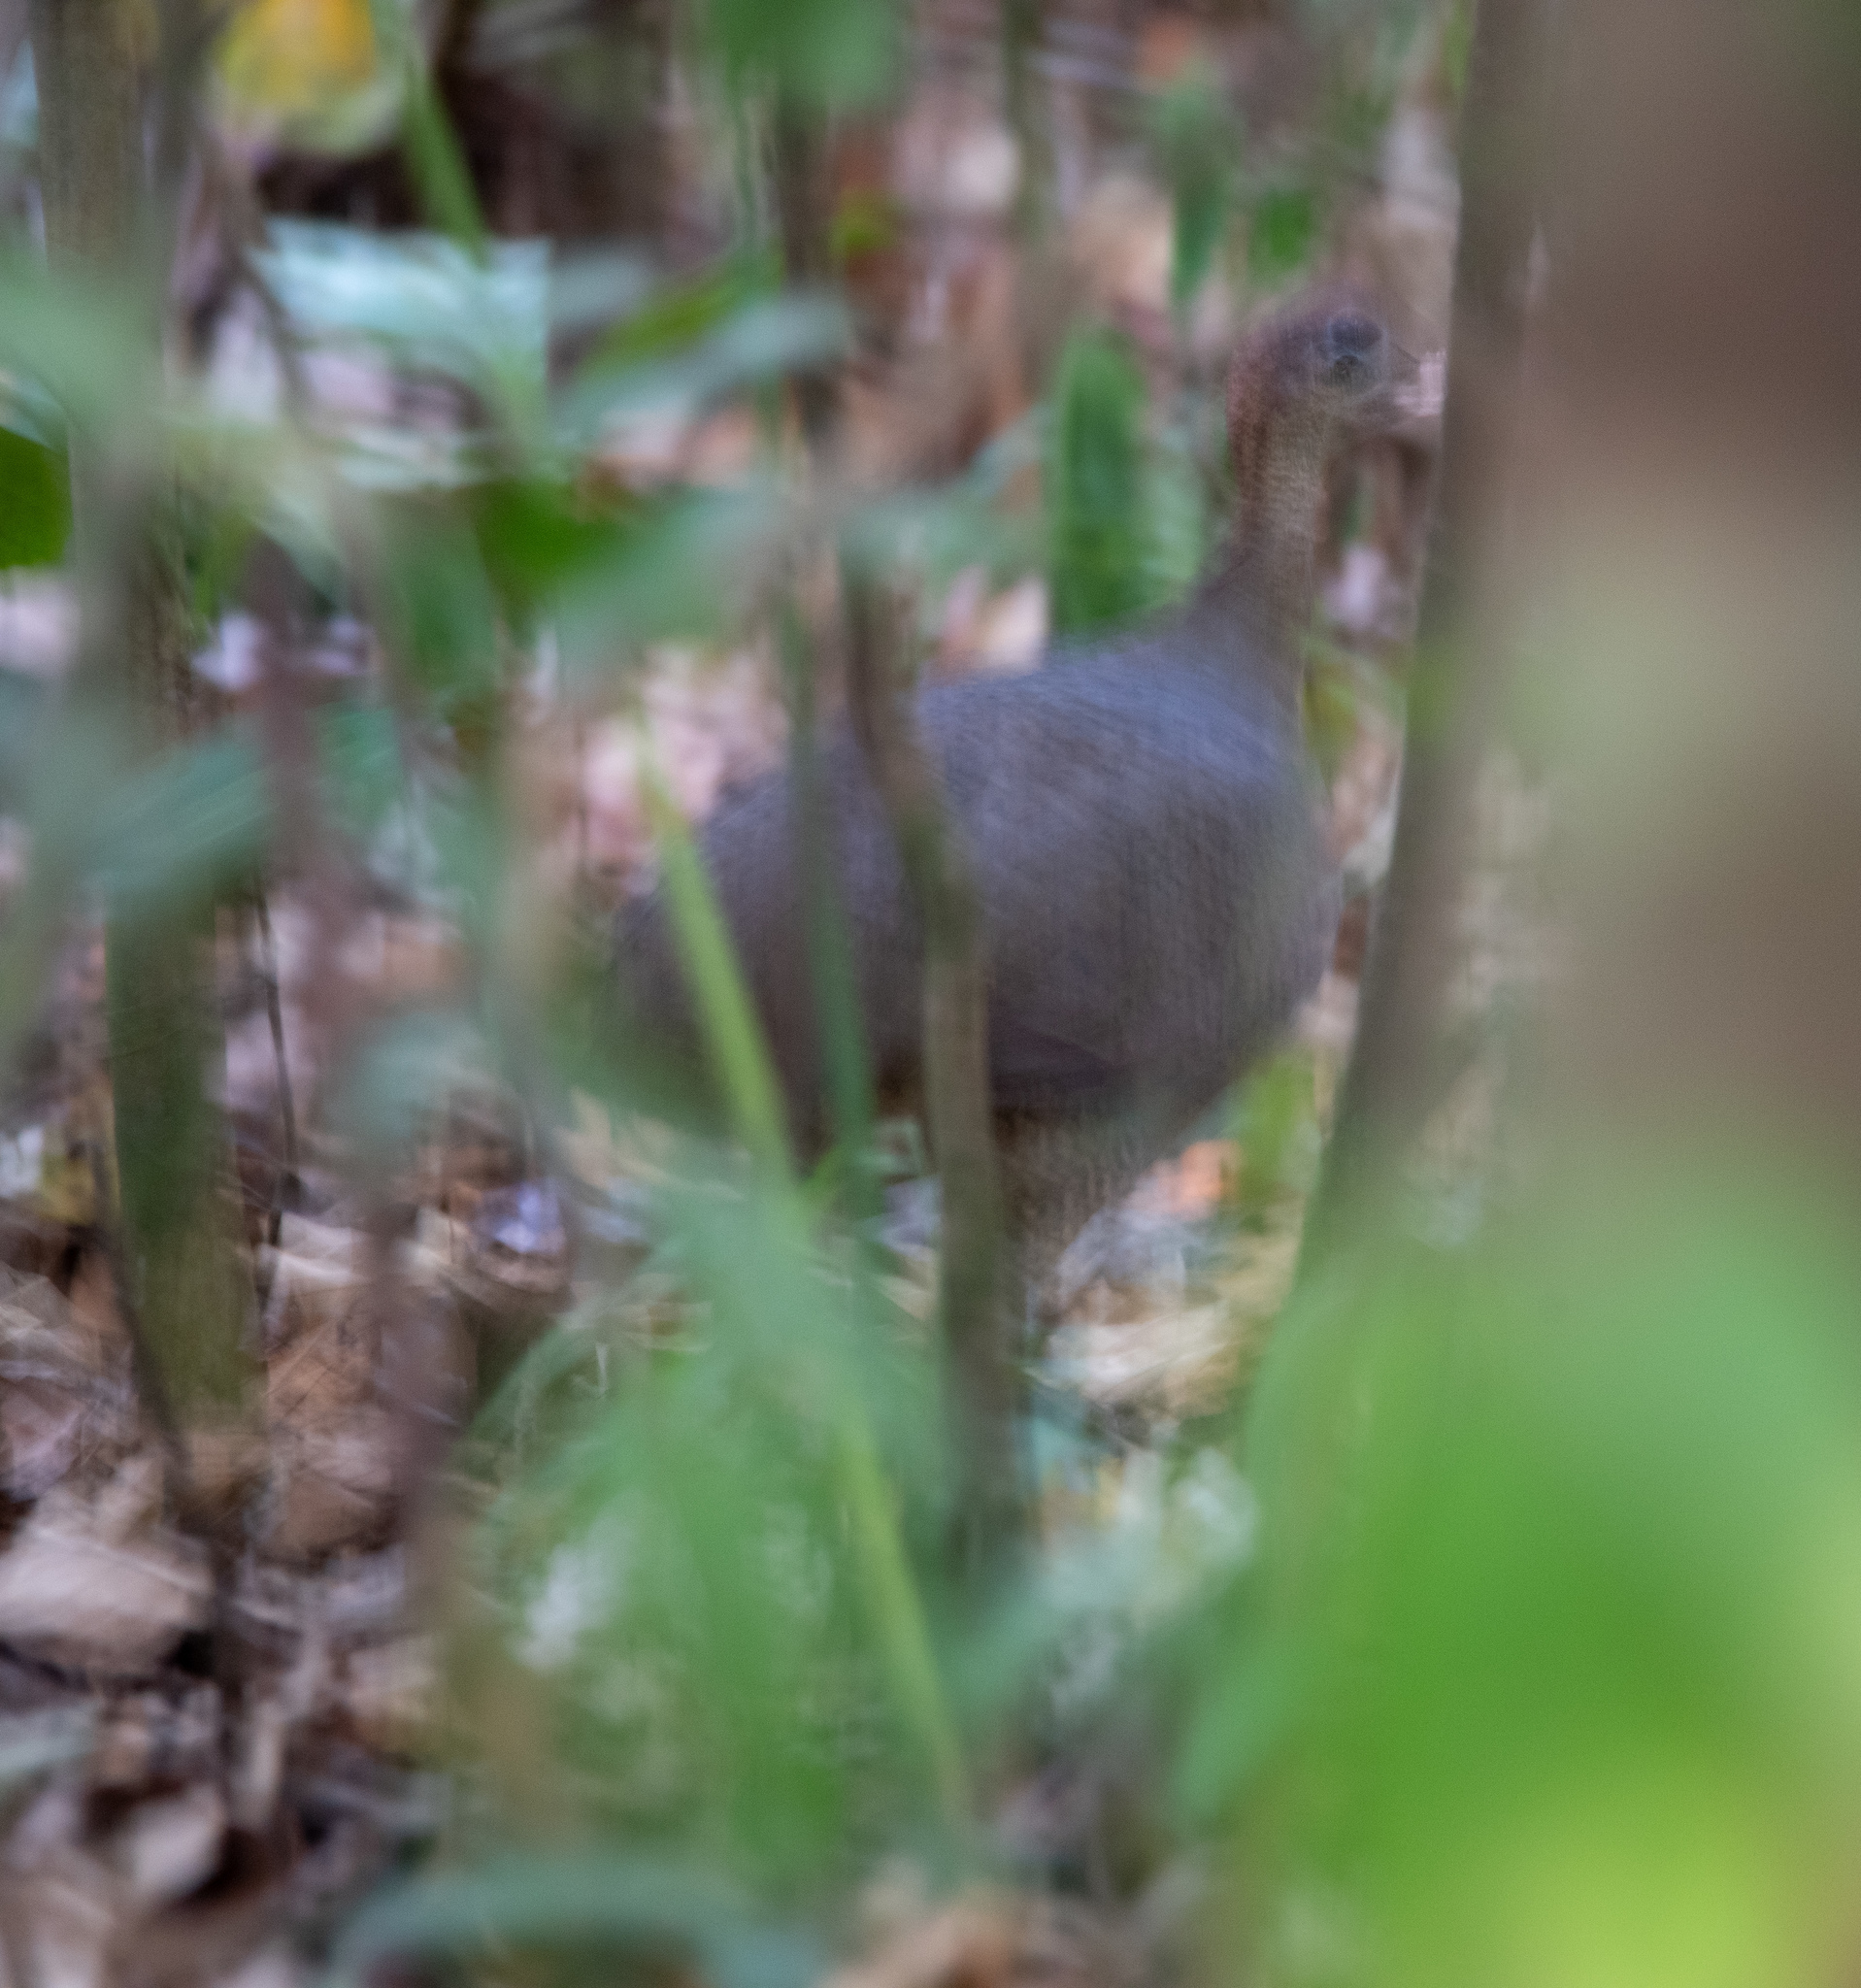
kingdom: Animalia
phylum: Chordata
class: Aves
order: Tinamiformes
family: Tinamidae
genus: Tinamus
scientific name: Tinamus major
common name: Great tinamou
